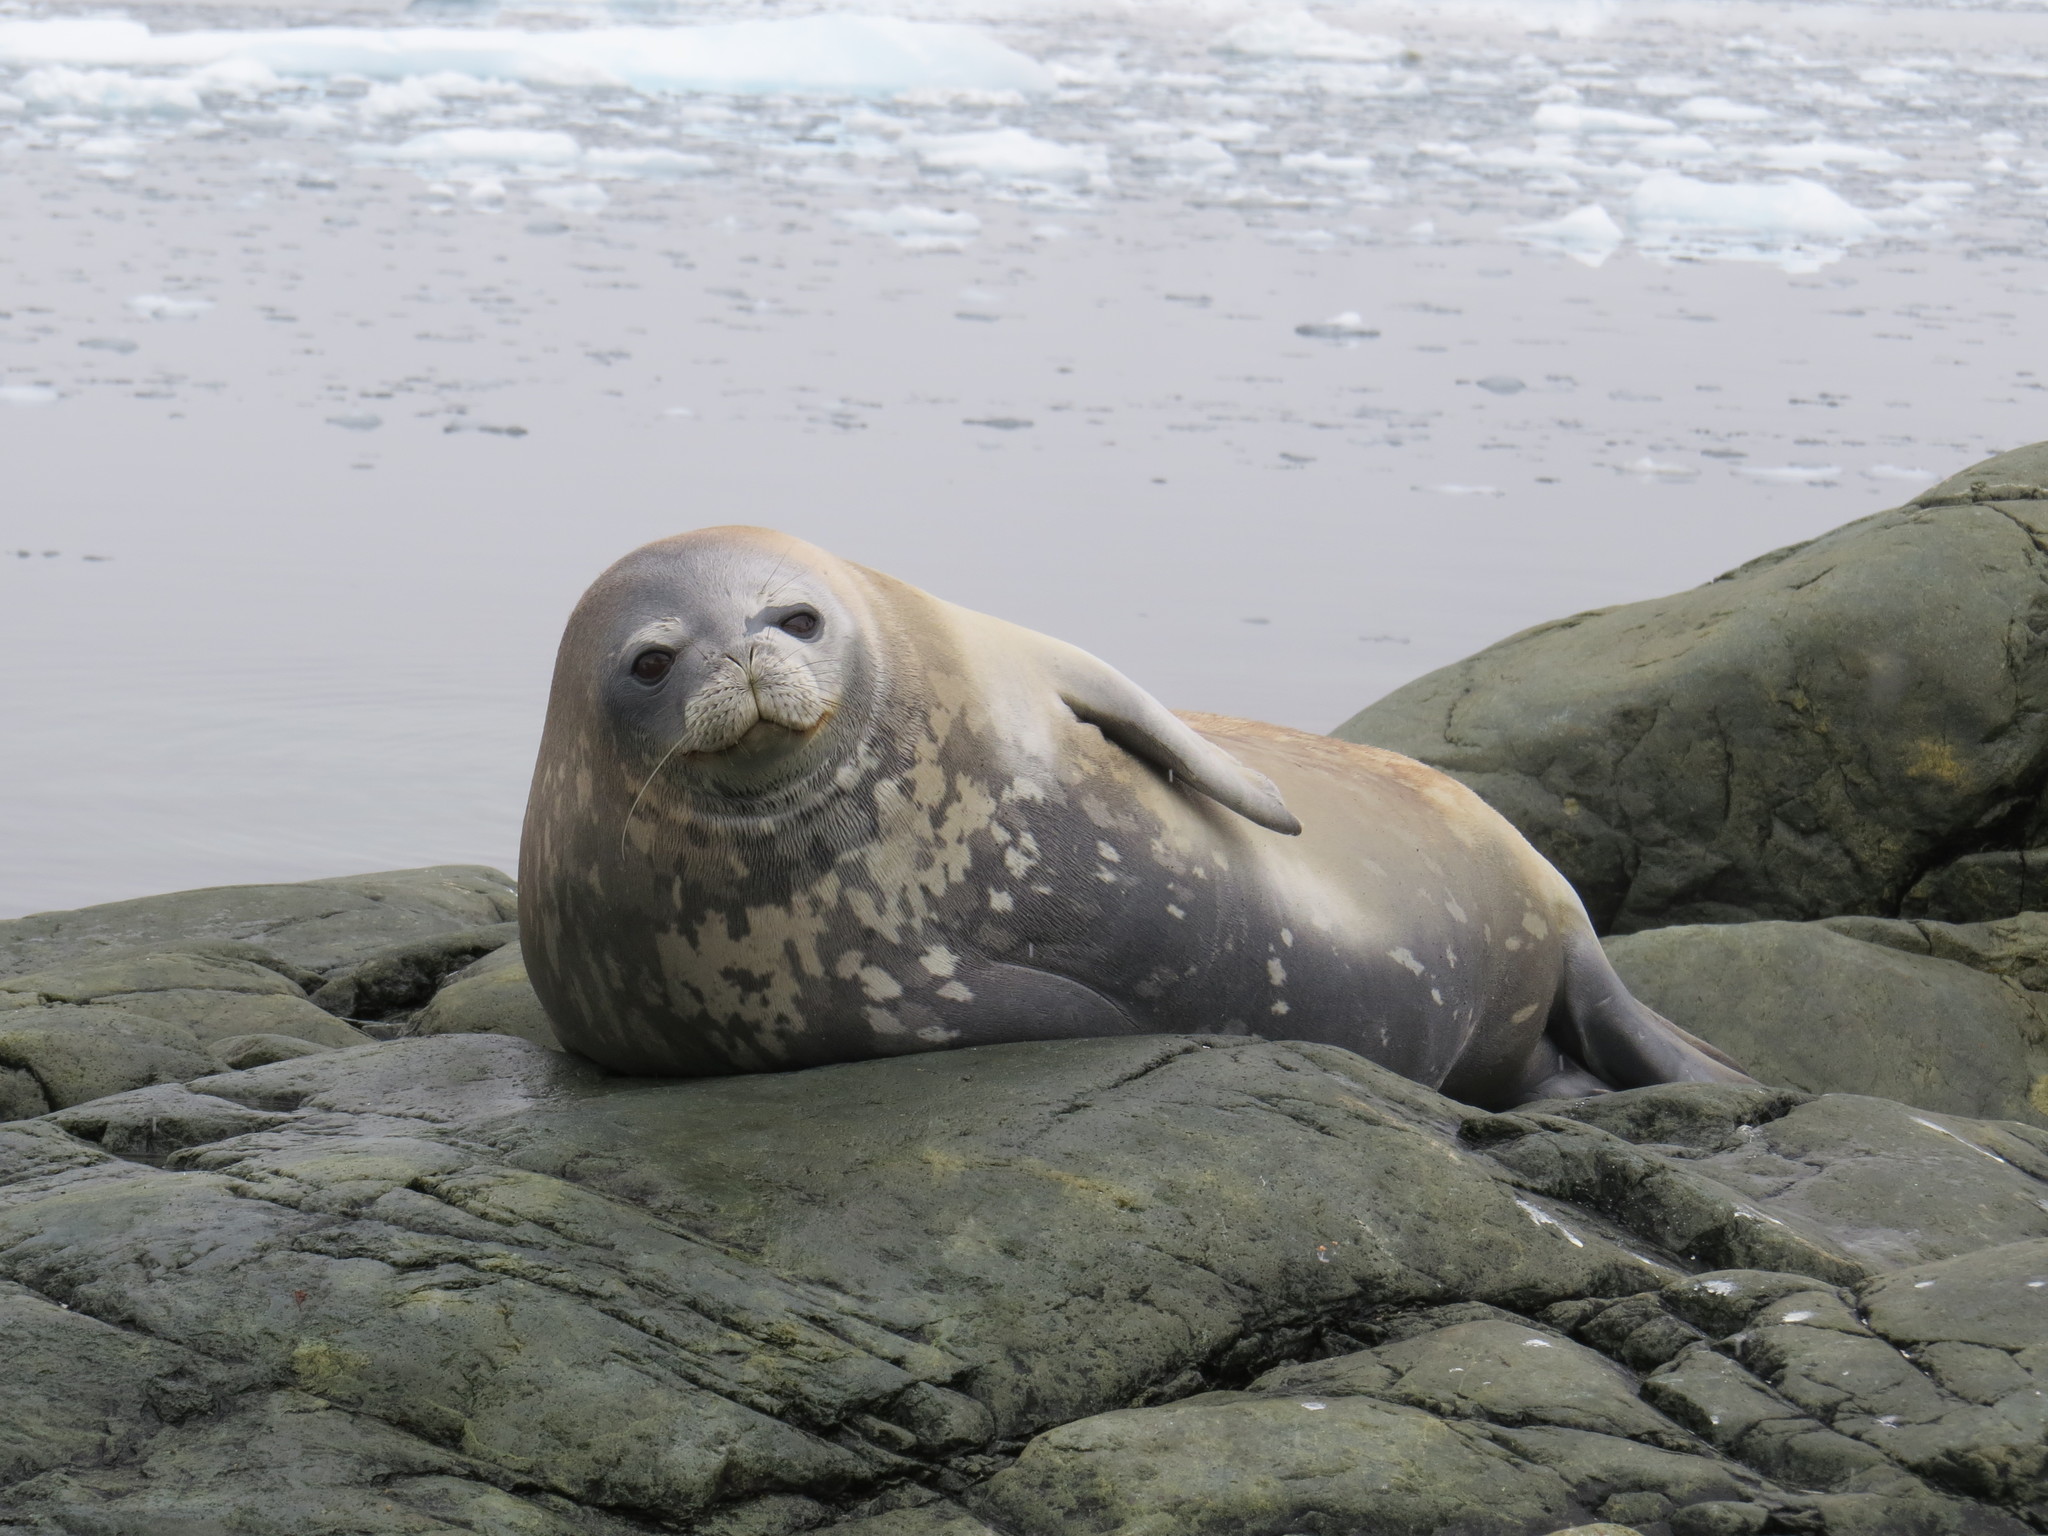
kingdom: Animalia
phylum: Chordata
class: Mammalia
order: Carnivora
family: Phocidae
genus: Leptonychotes
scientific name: Leptonychotes weddellii
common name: Weddell seal
